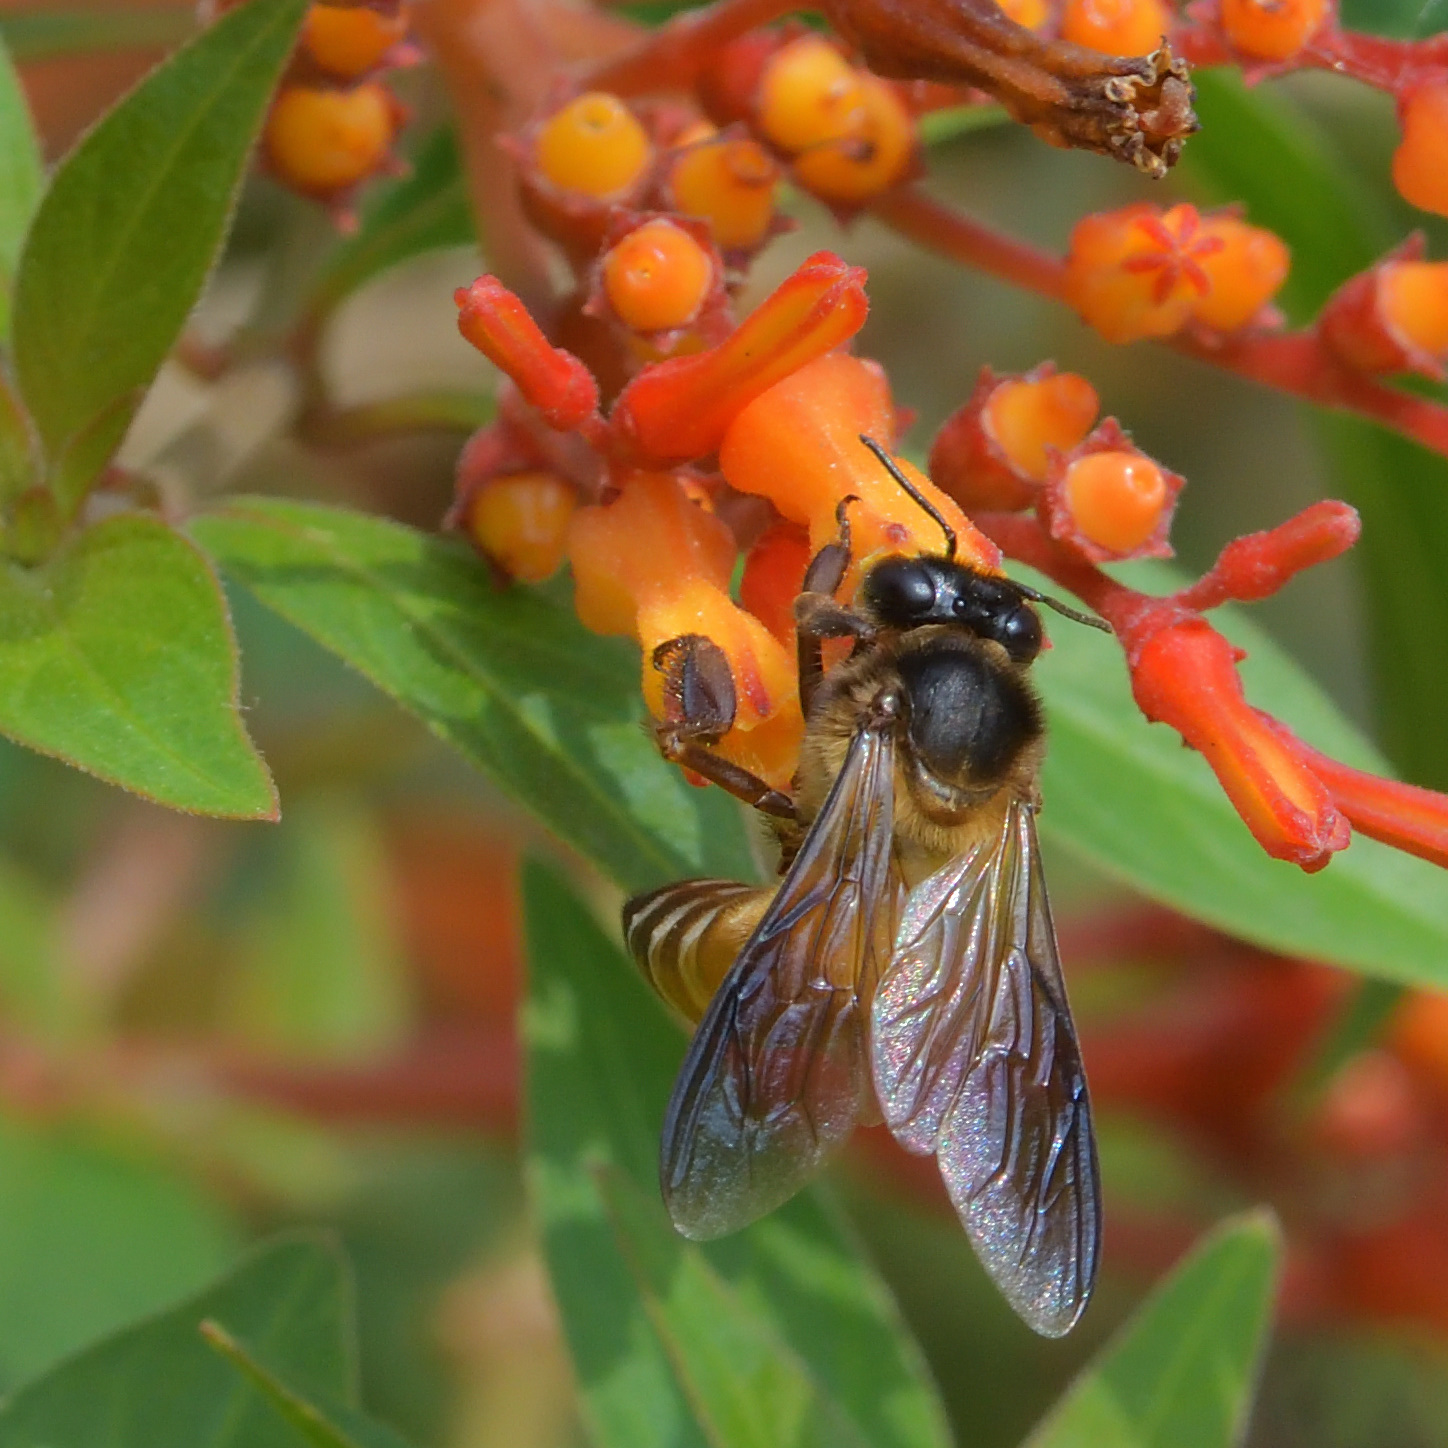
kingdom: Animalia
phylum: Arthropoda
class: Insecta
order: Hymenoptera
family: Apidae
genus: Apis
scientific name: Apis dorsata
